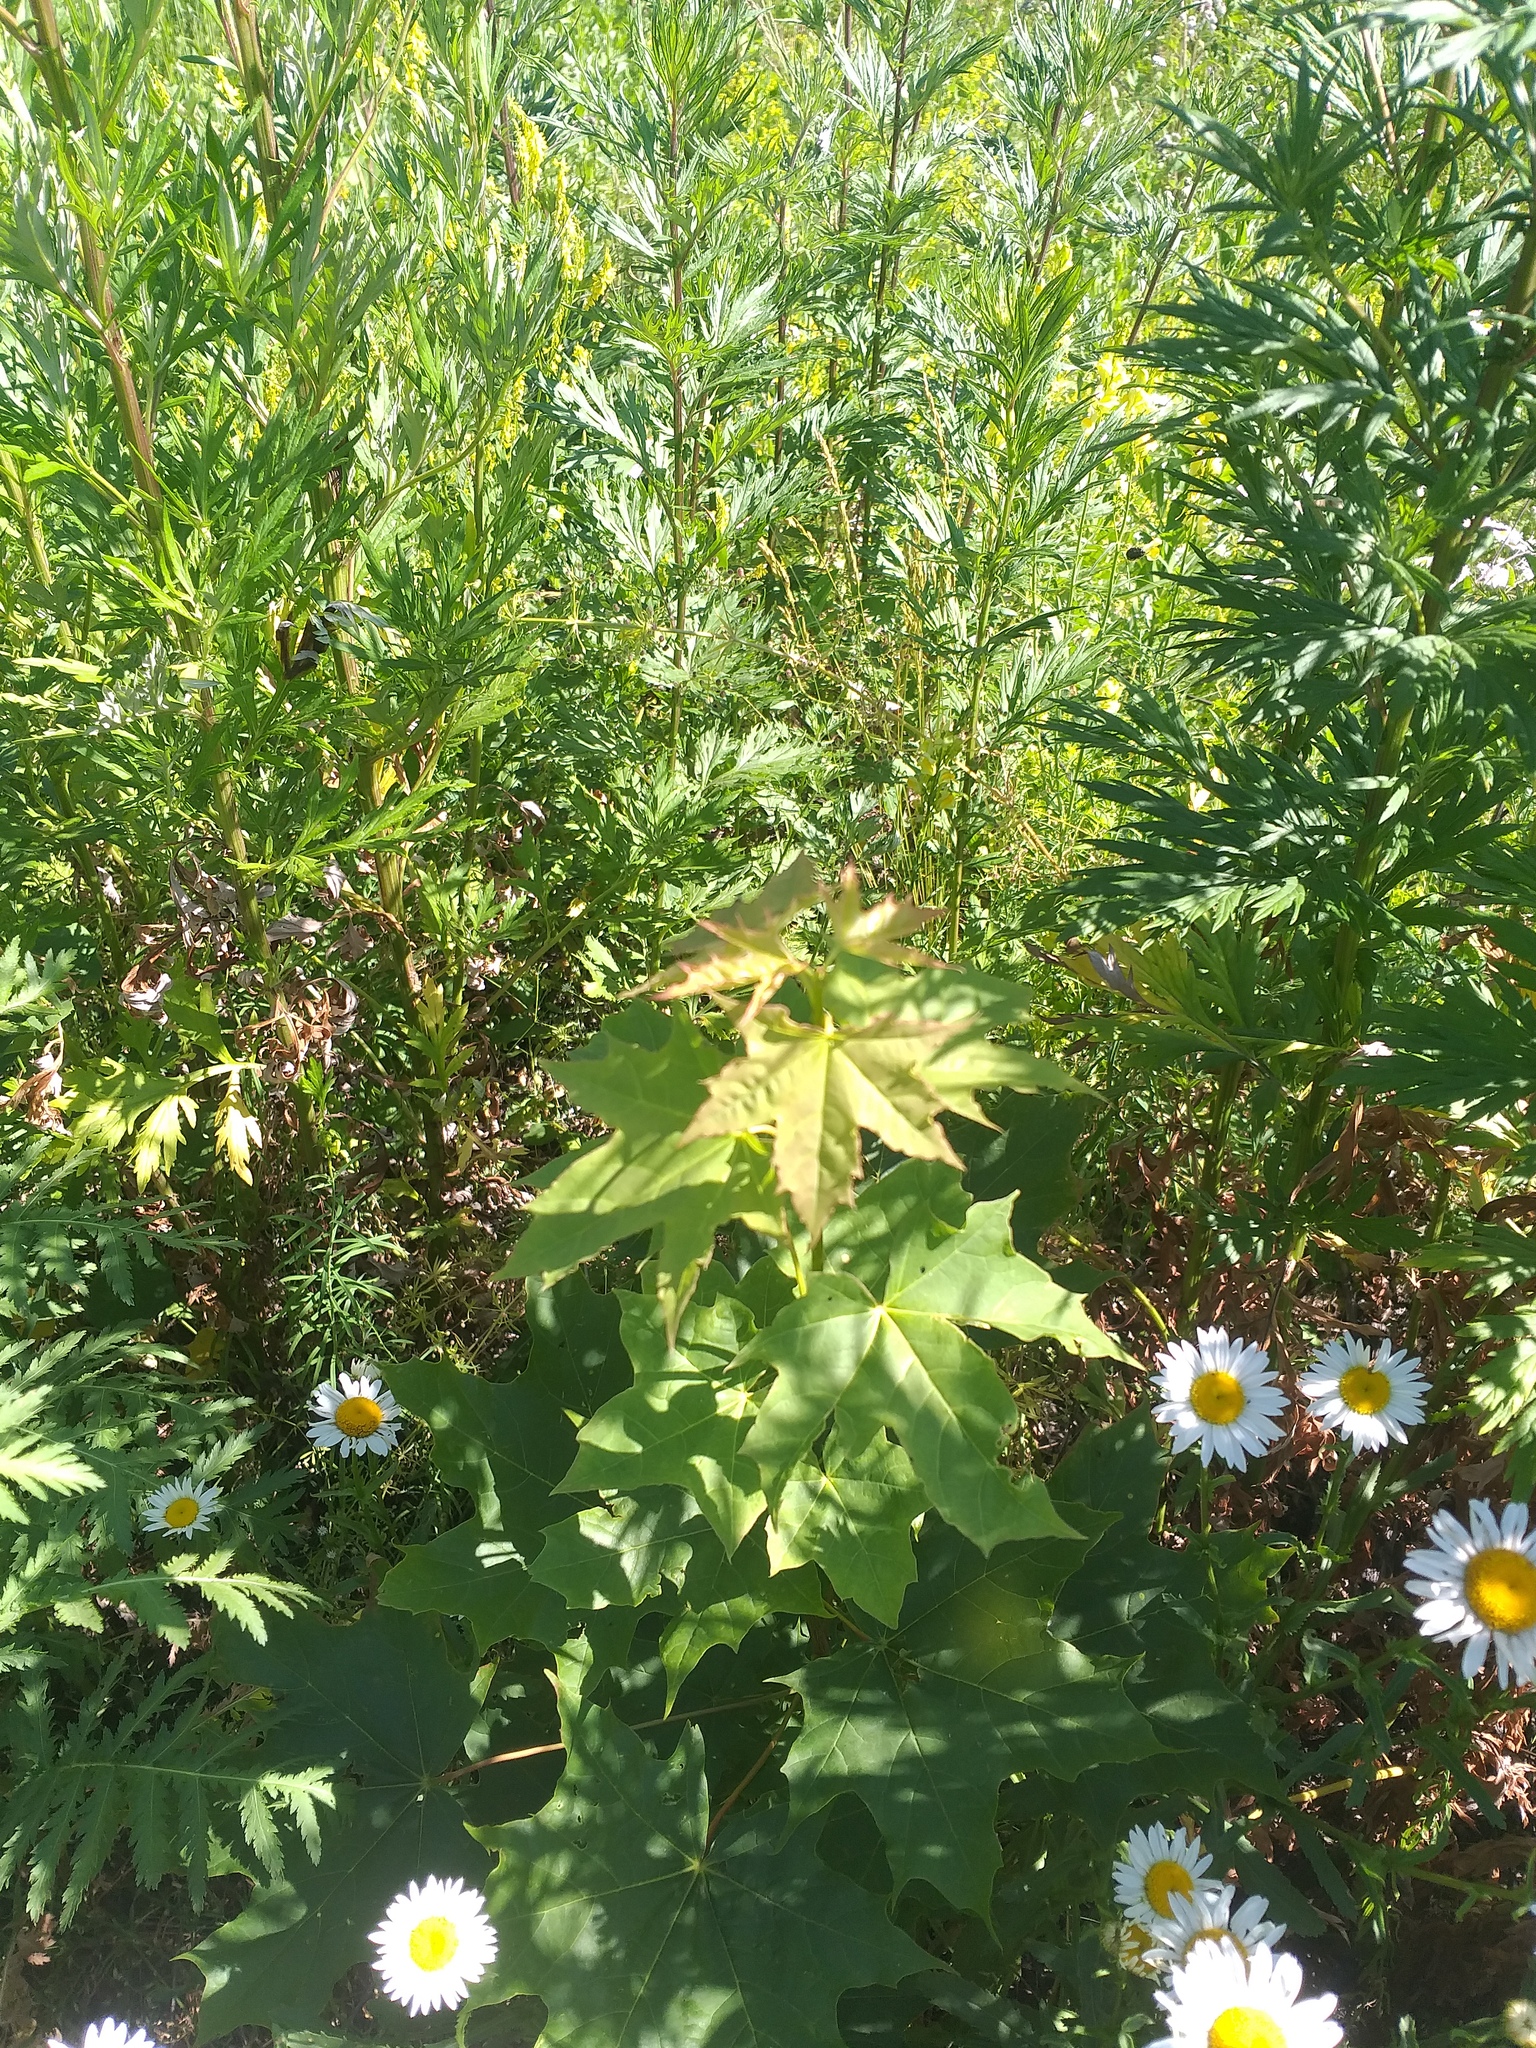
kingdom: Plantae
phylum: Tracheophyta
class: Magnoliopsida
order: Sapindales
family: Sapindaceae
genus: Acer
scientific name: Acer platanoides
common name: Norway maple
